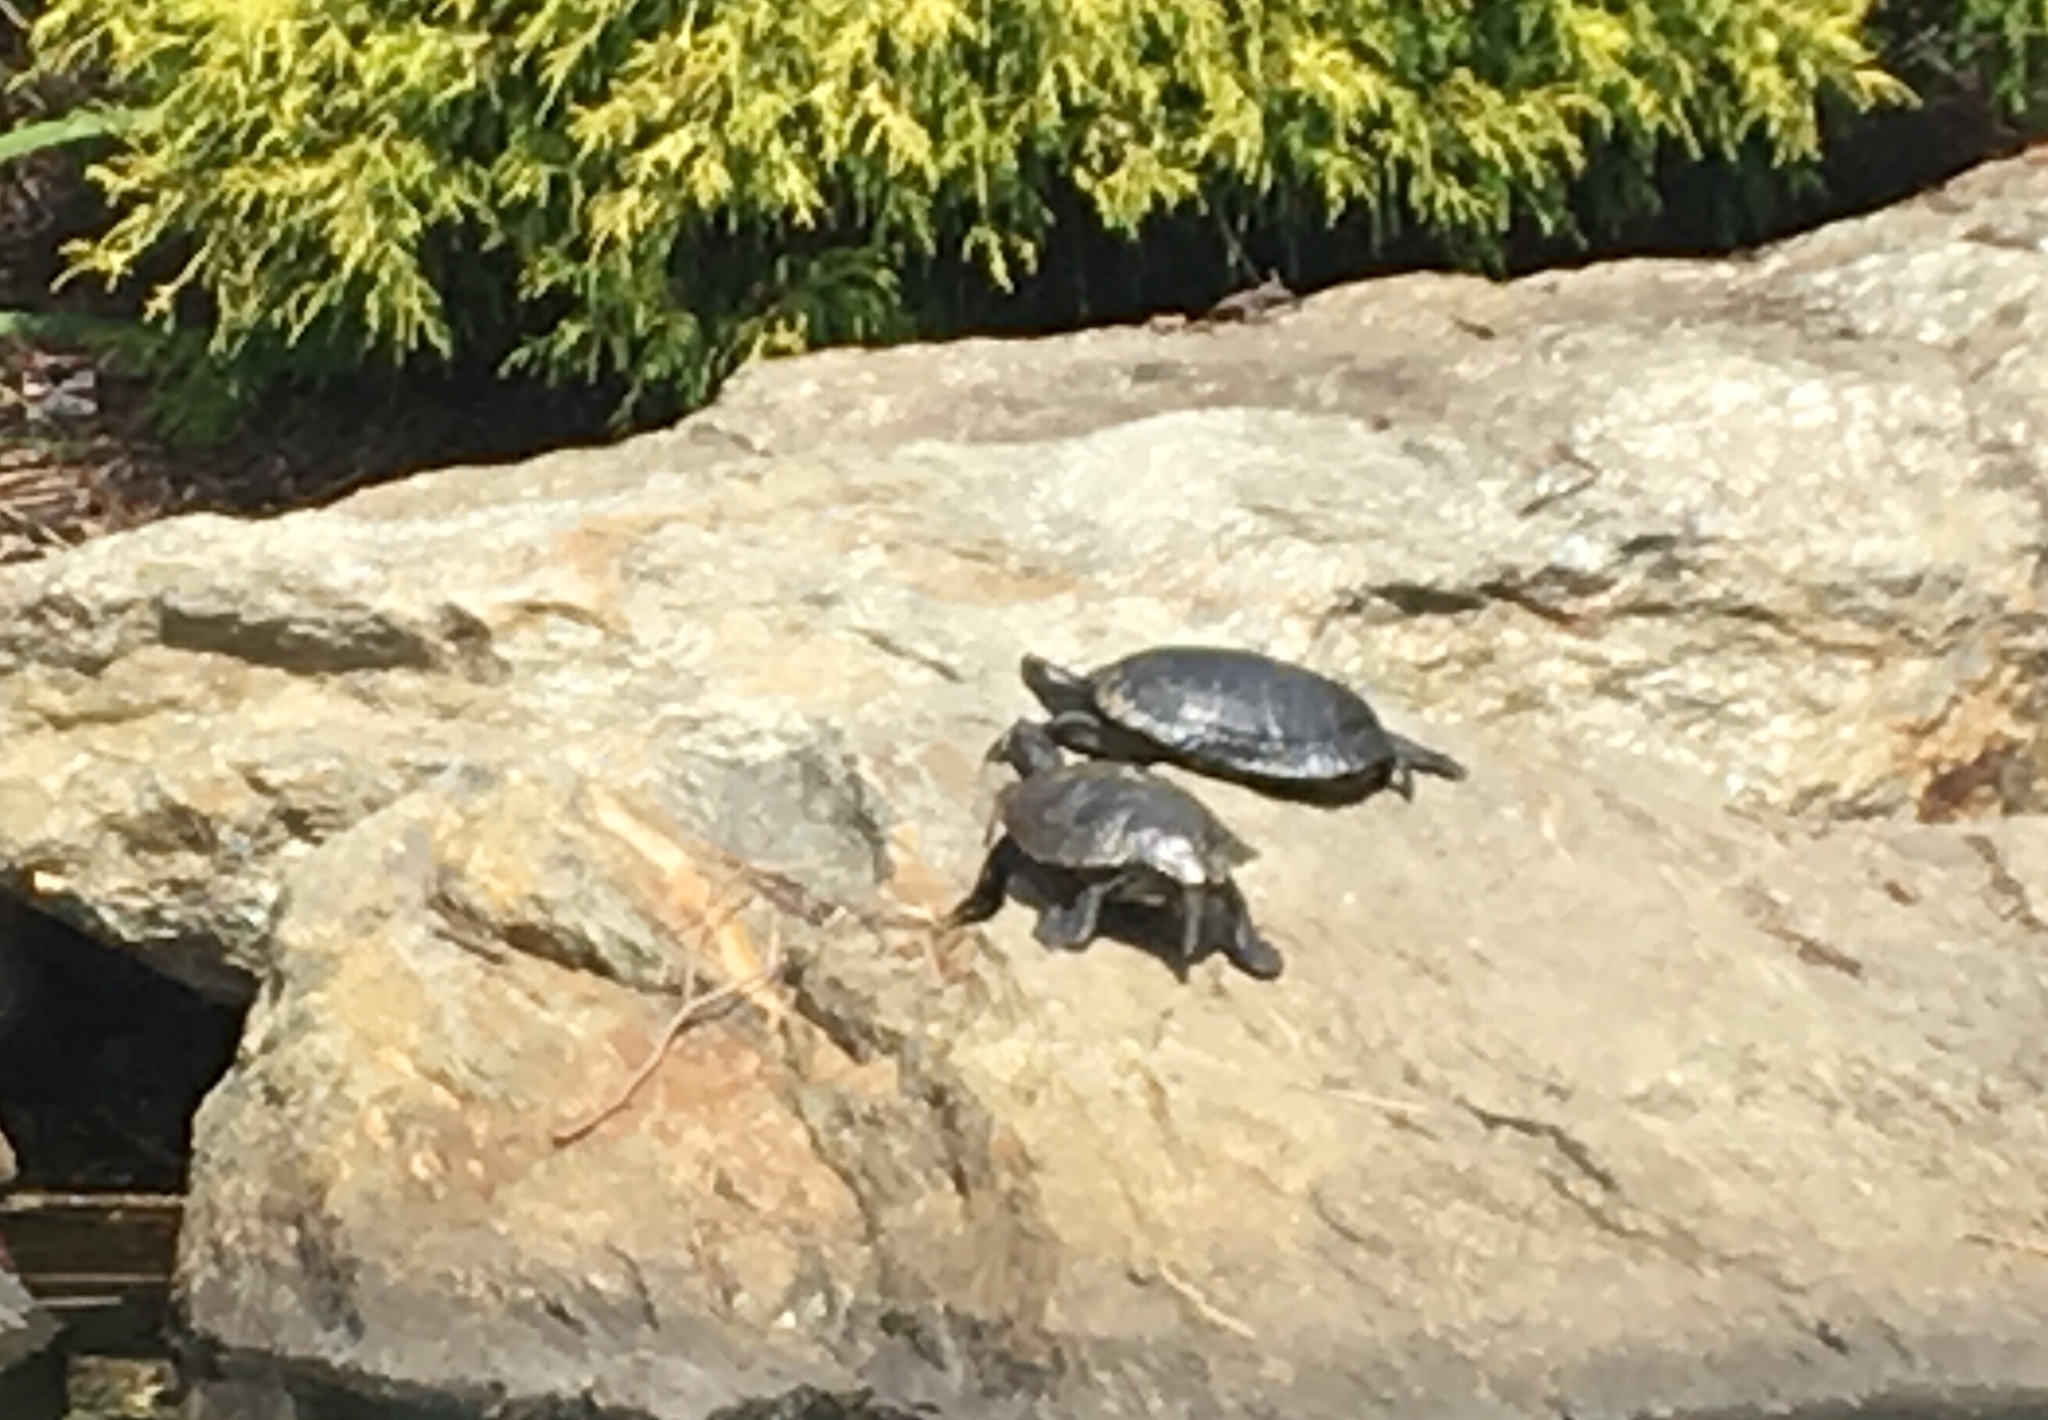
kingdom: Animalia
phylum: Chordata
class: Testudines
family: Emydidae
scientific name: Emydidae
